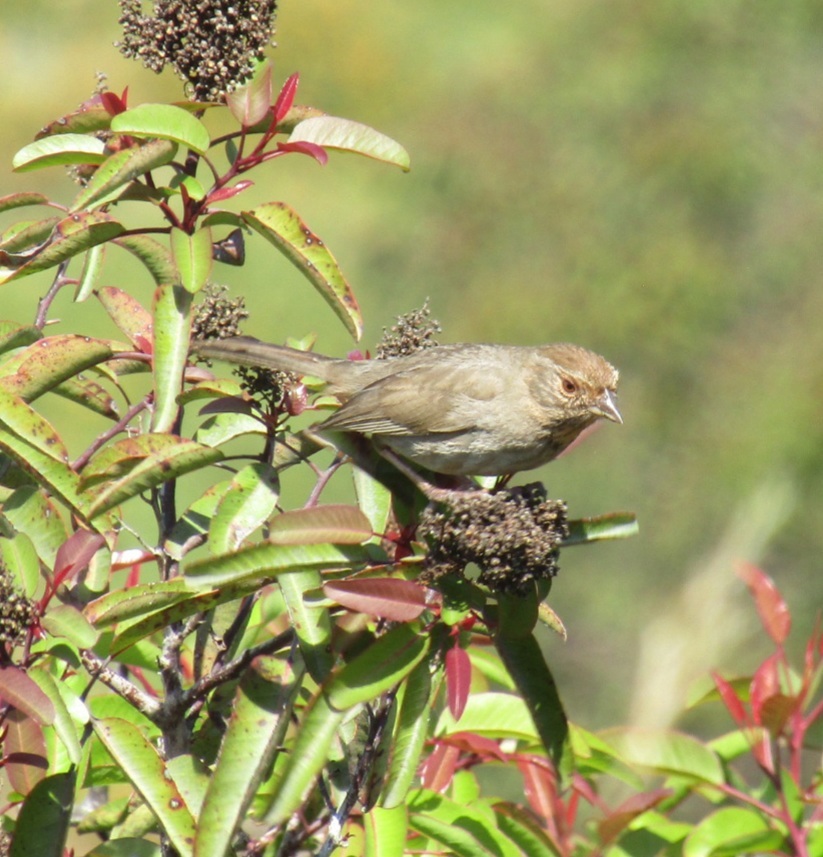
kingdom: Animalia
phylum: Chordata
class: Aves
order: Passeriformes
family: Passerellidae
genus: Melozone
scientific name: Melozone crissalis
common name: California towhee
